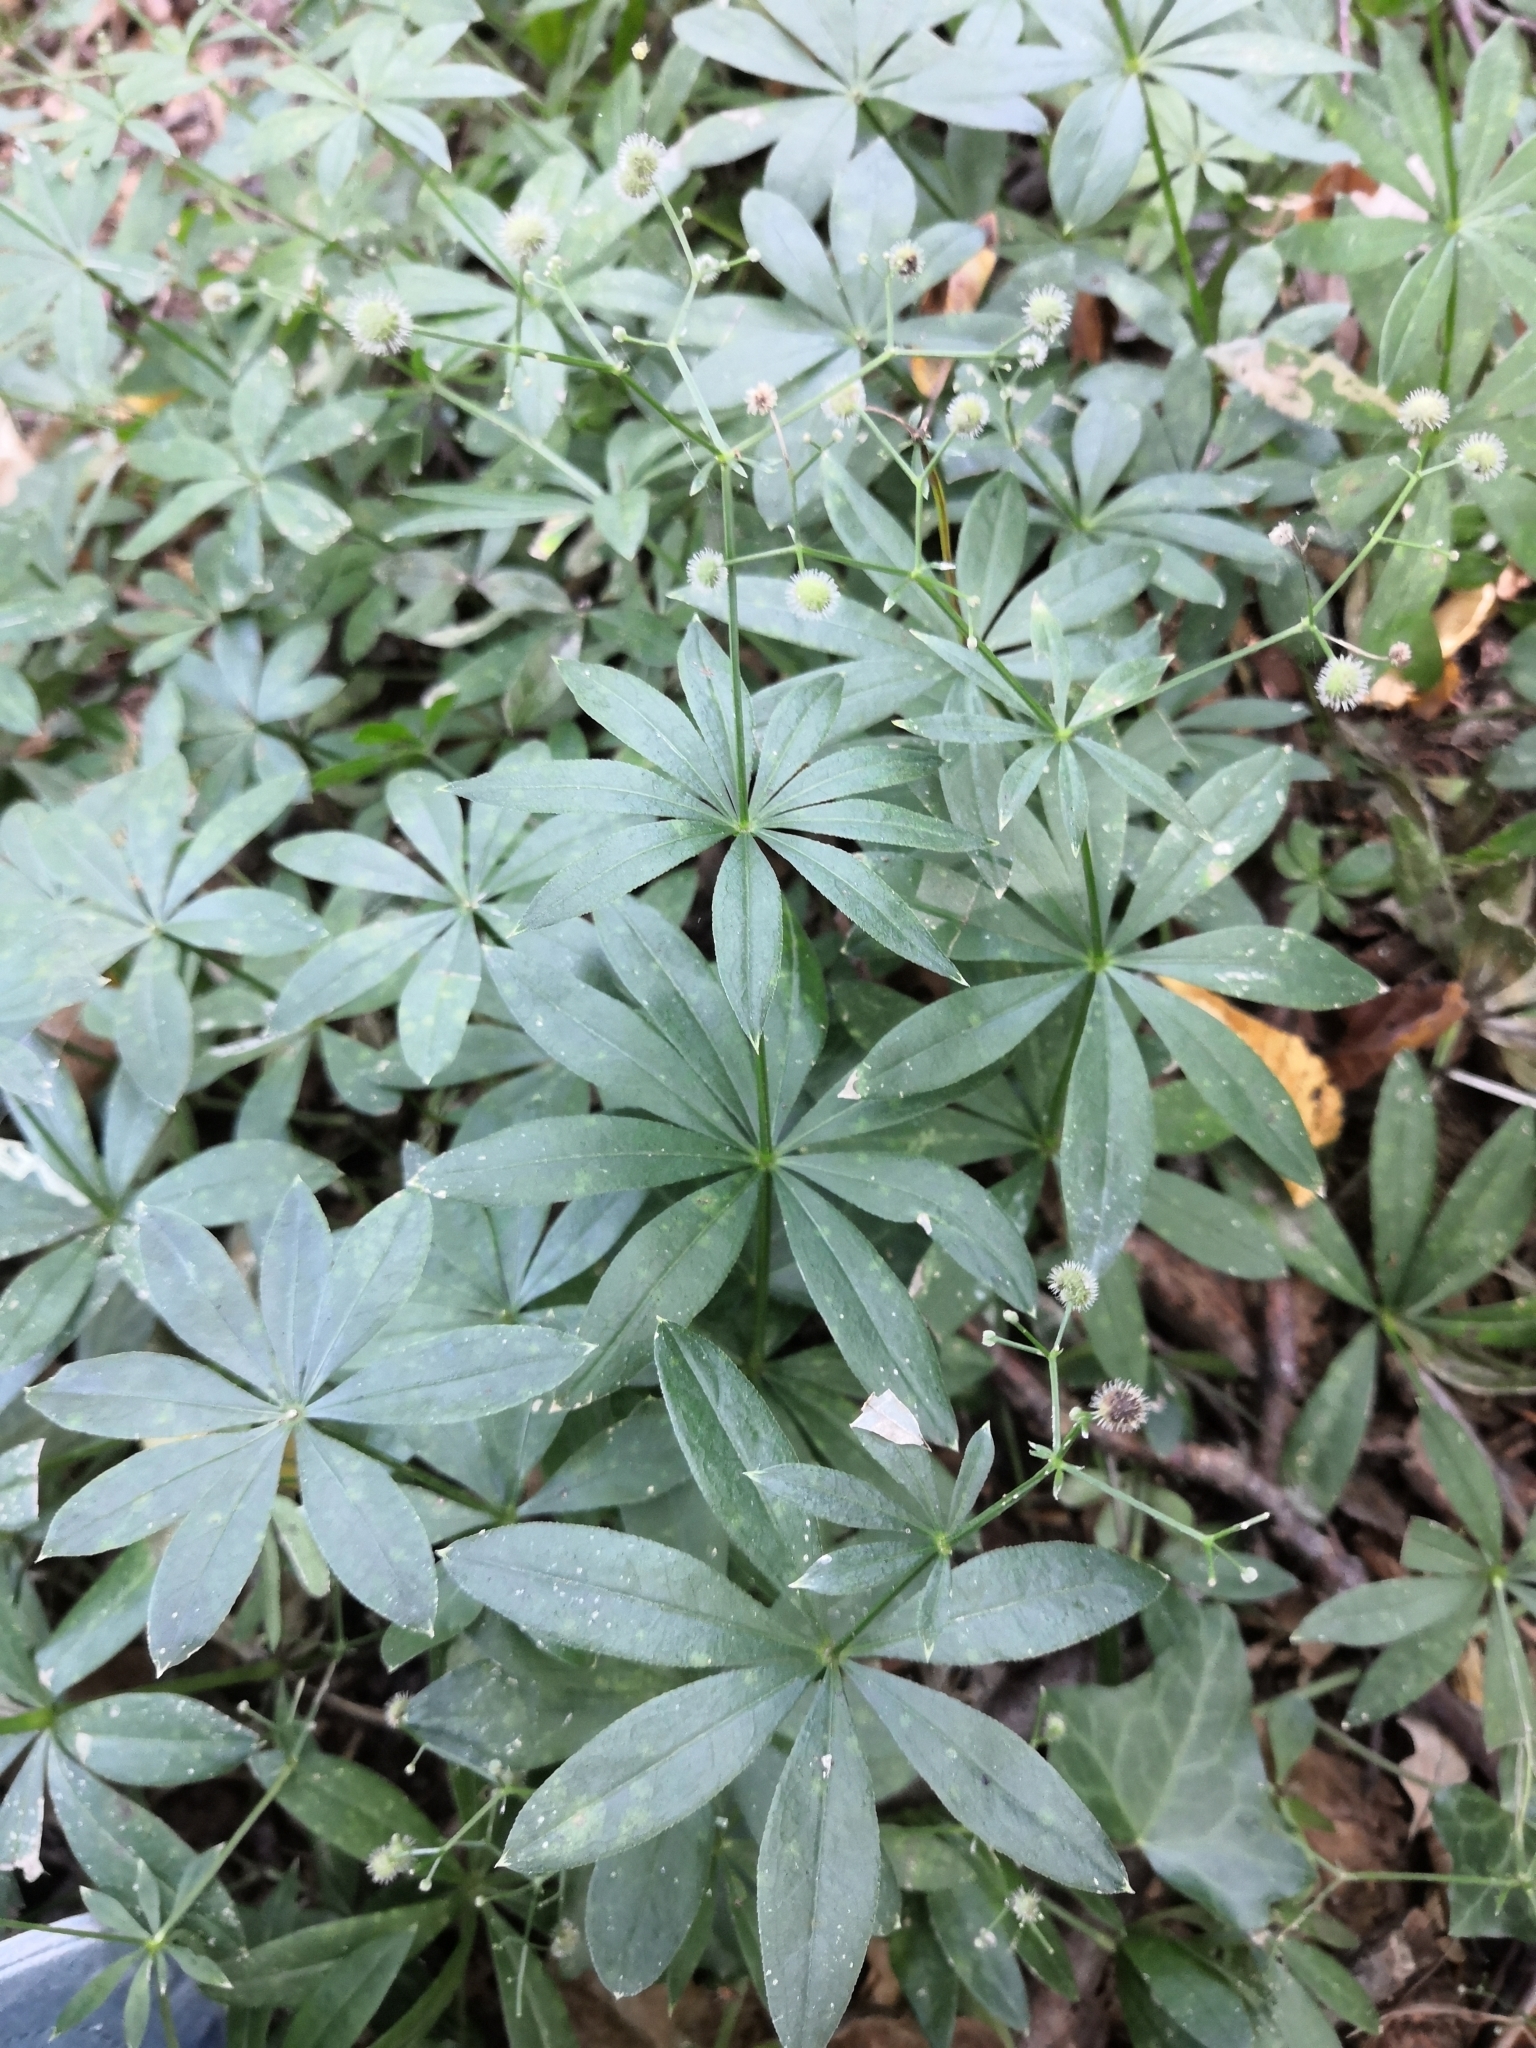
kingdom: Plantae
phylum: Tracheophyta
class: Magnoliopsida
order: Gentianales
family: Rubiaceae
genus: Galium
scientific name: Galium odoratum
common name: Sweet woodruff
